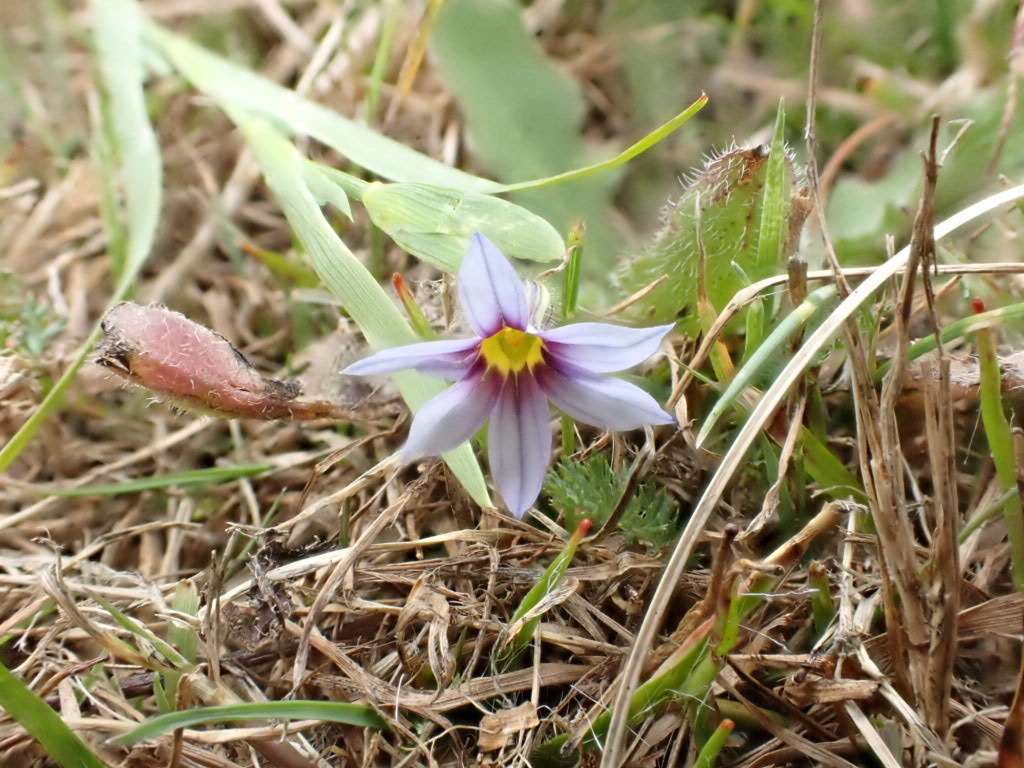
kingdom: Plantae
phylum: Tracheophyta
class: Liliopsida
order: Asparagales
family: Iridaceae
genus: Sisyrinchium
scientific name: Sisyrinchium micranthum
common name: Bermuda pigroot
